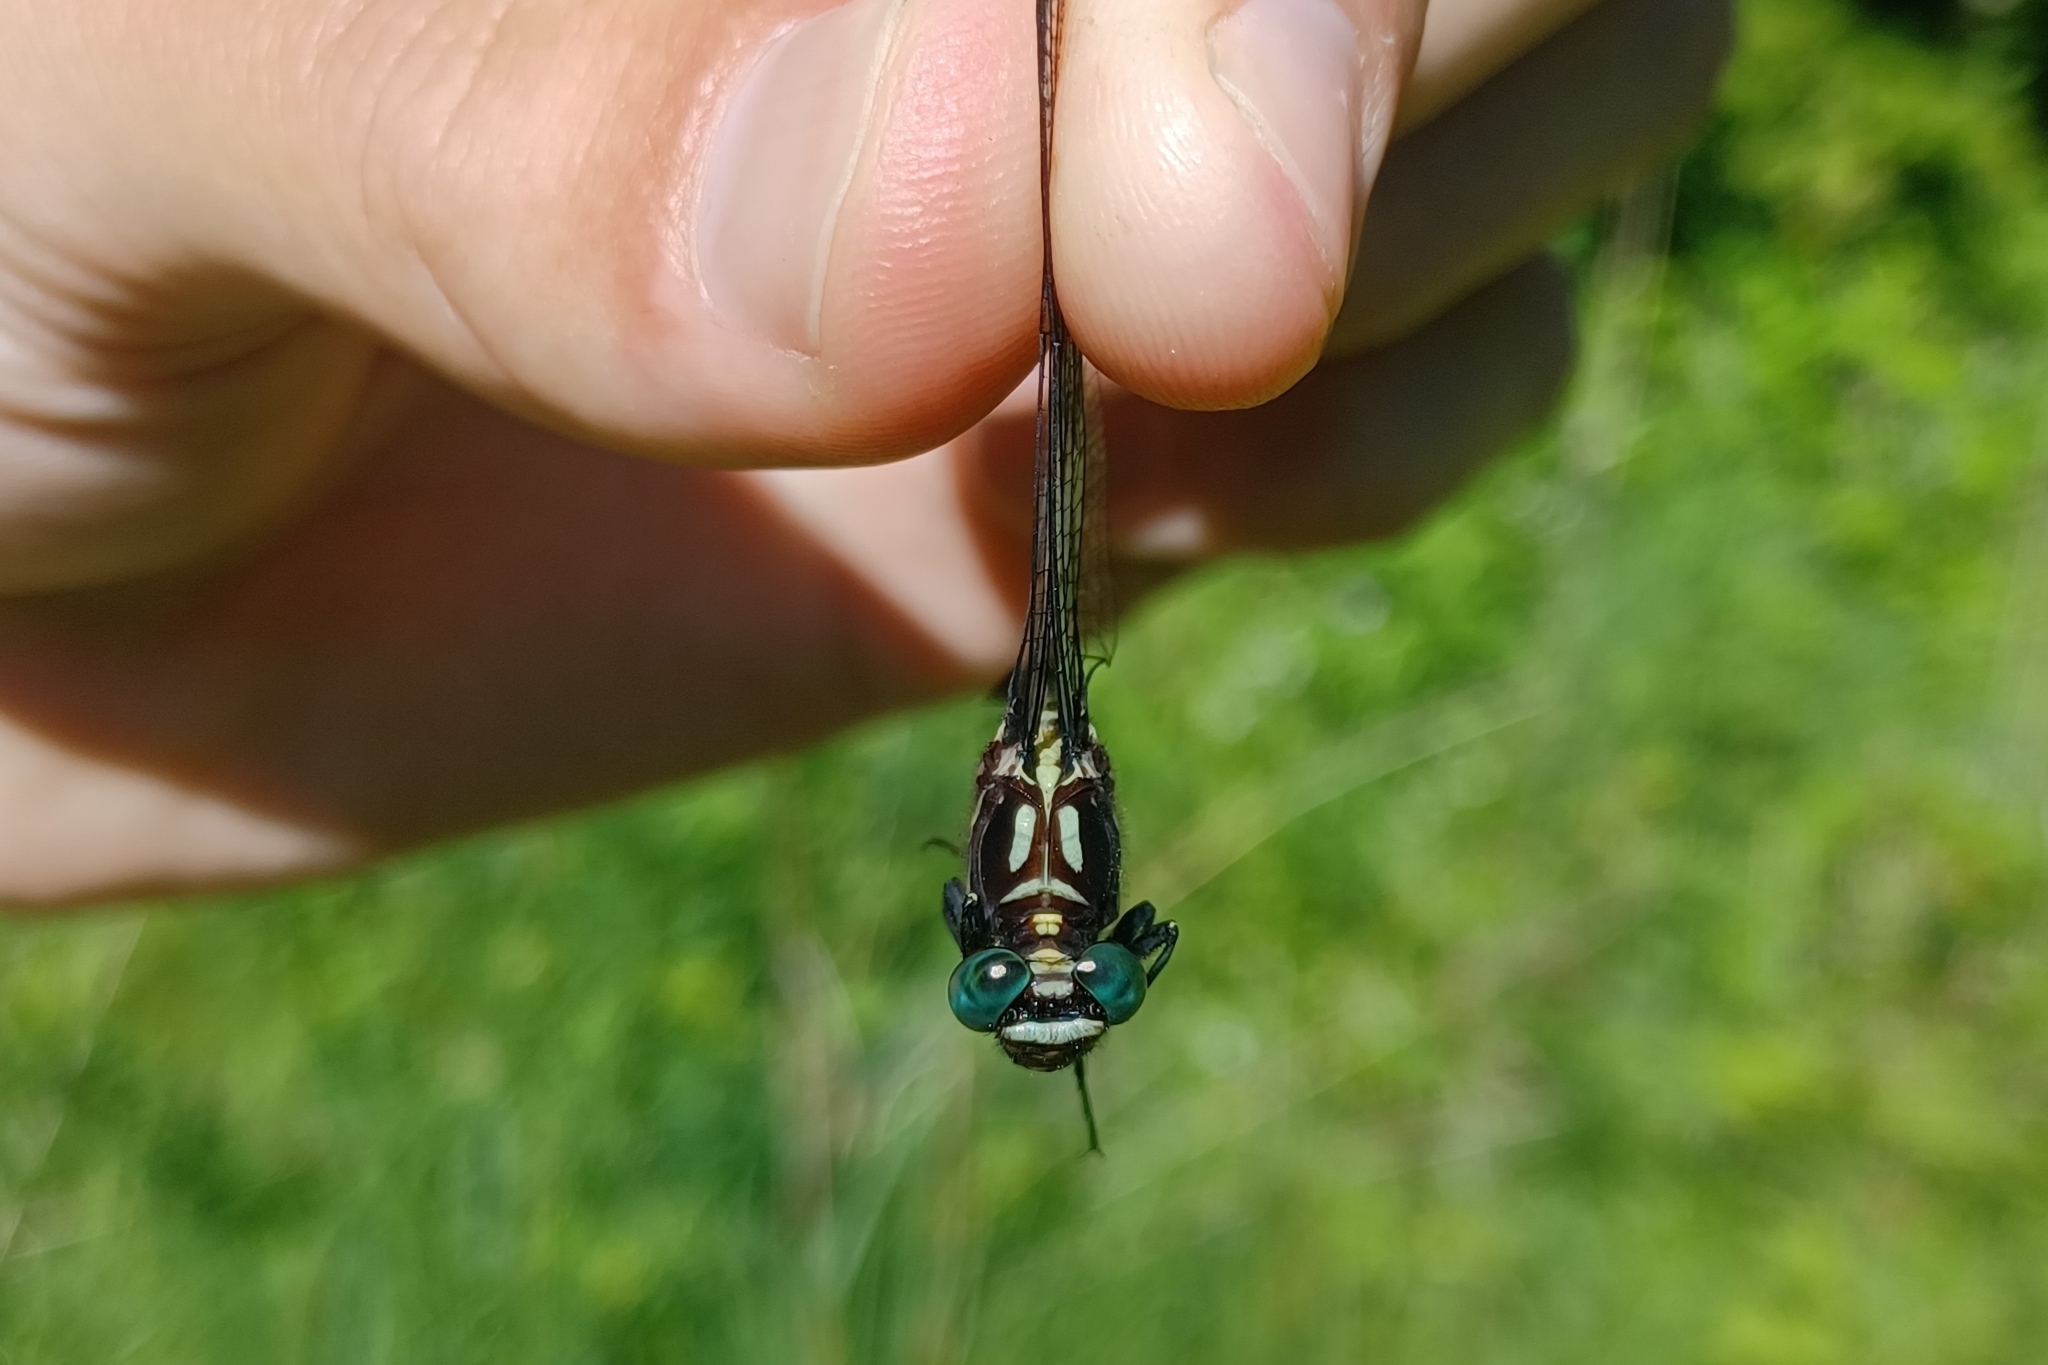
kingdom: Animalia
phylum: Arthropoda
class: Insecta
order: Odonata
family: Gomphidae
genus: Stylurus
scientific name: Stylurus amnicola
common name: Riverine clubtail
